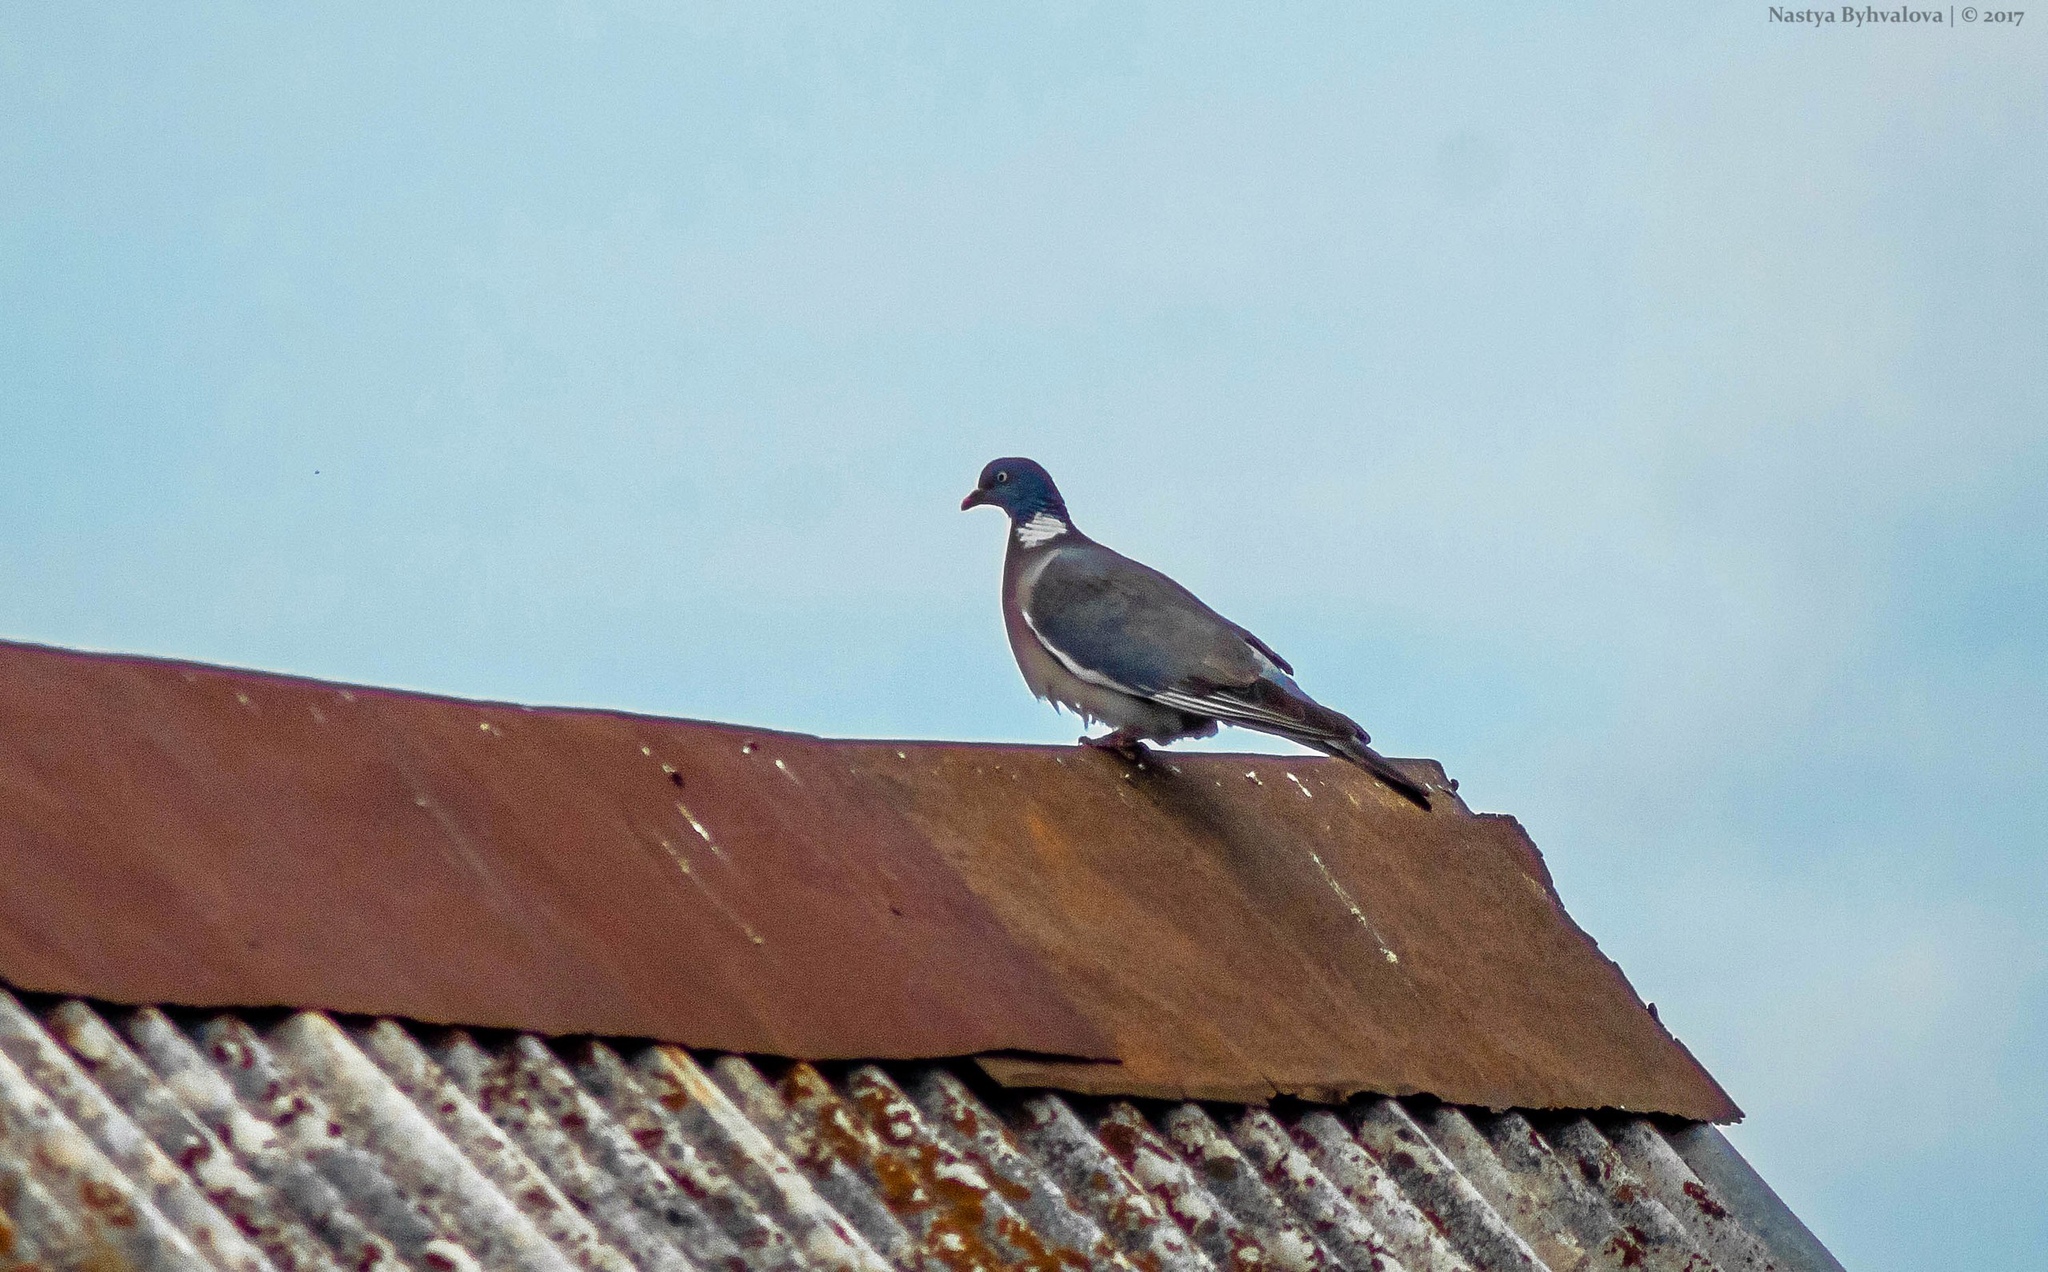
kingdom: Animalia
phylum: Chordata
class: Aves
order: Columbiformes
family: Columbidae
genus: Columba
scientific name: Columba palumbus
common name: Common wood pigeon
